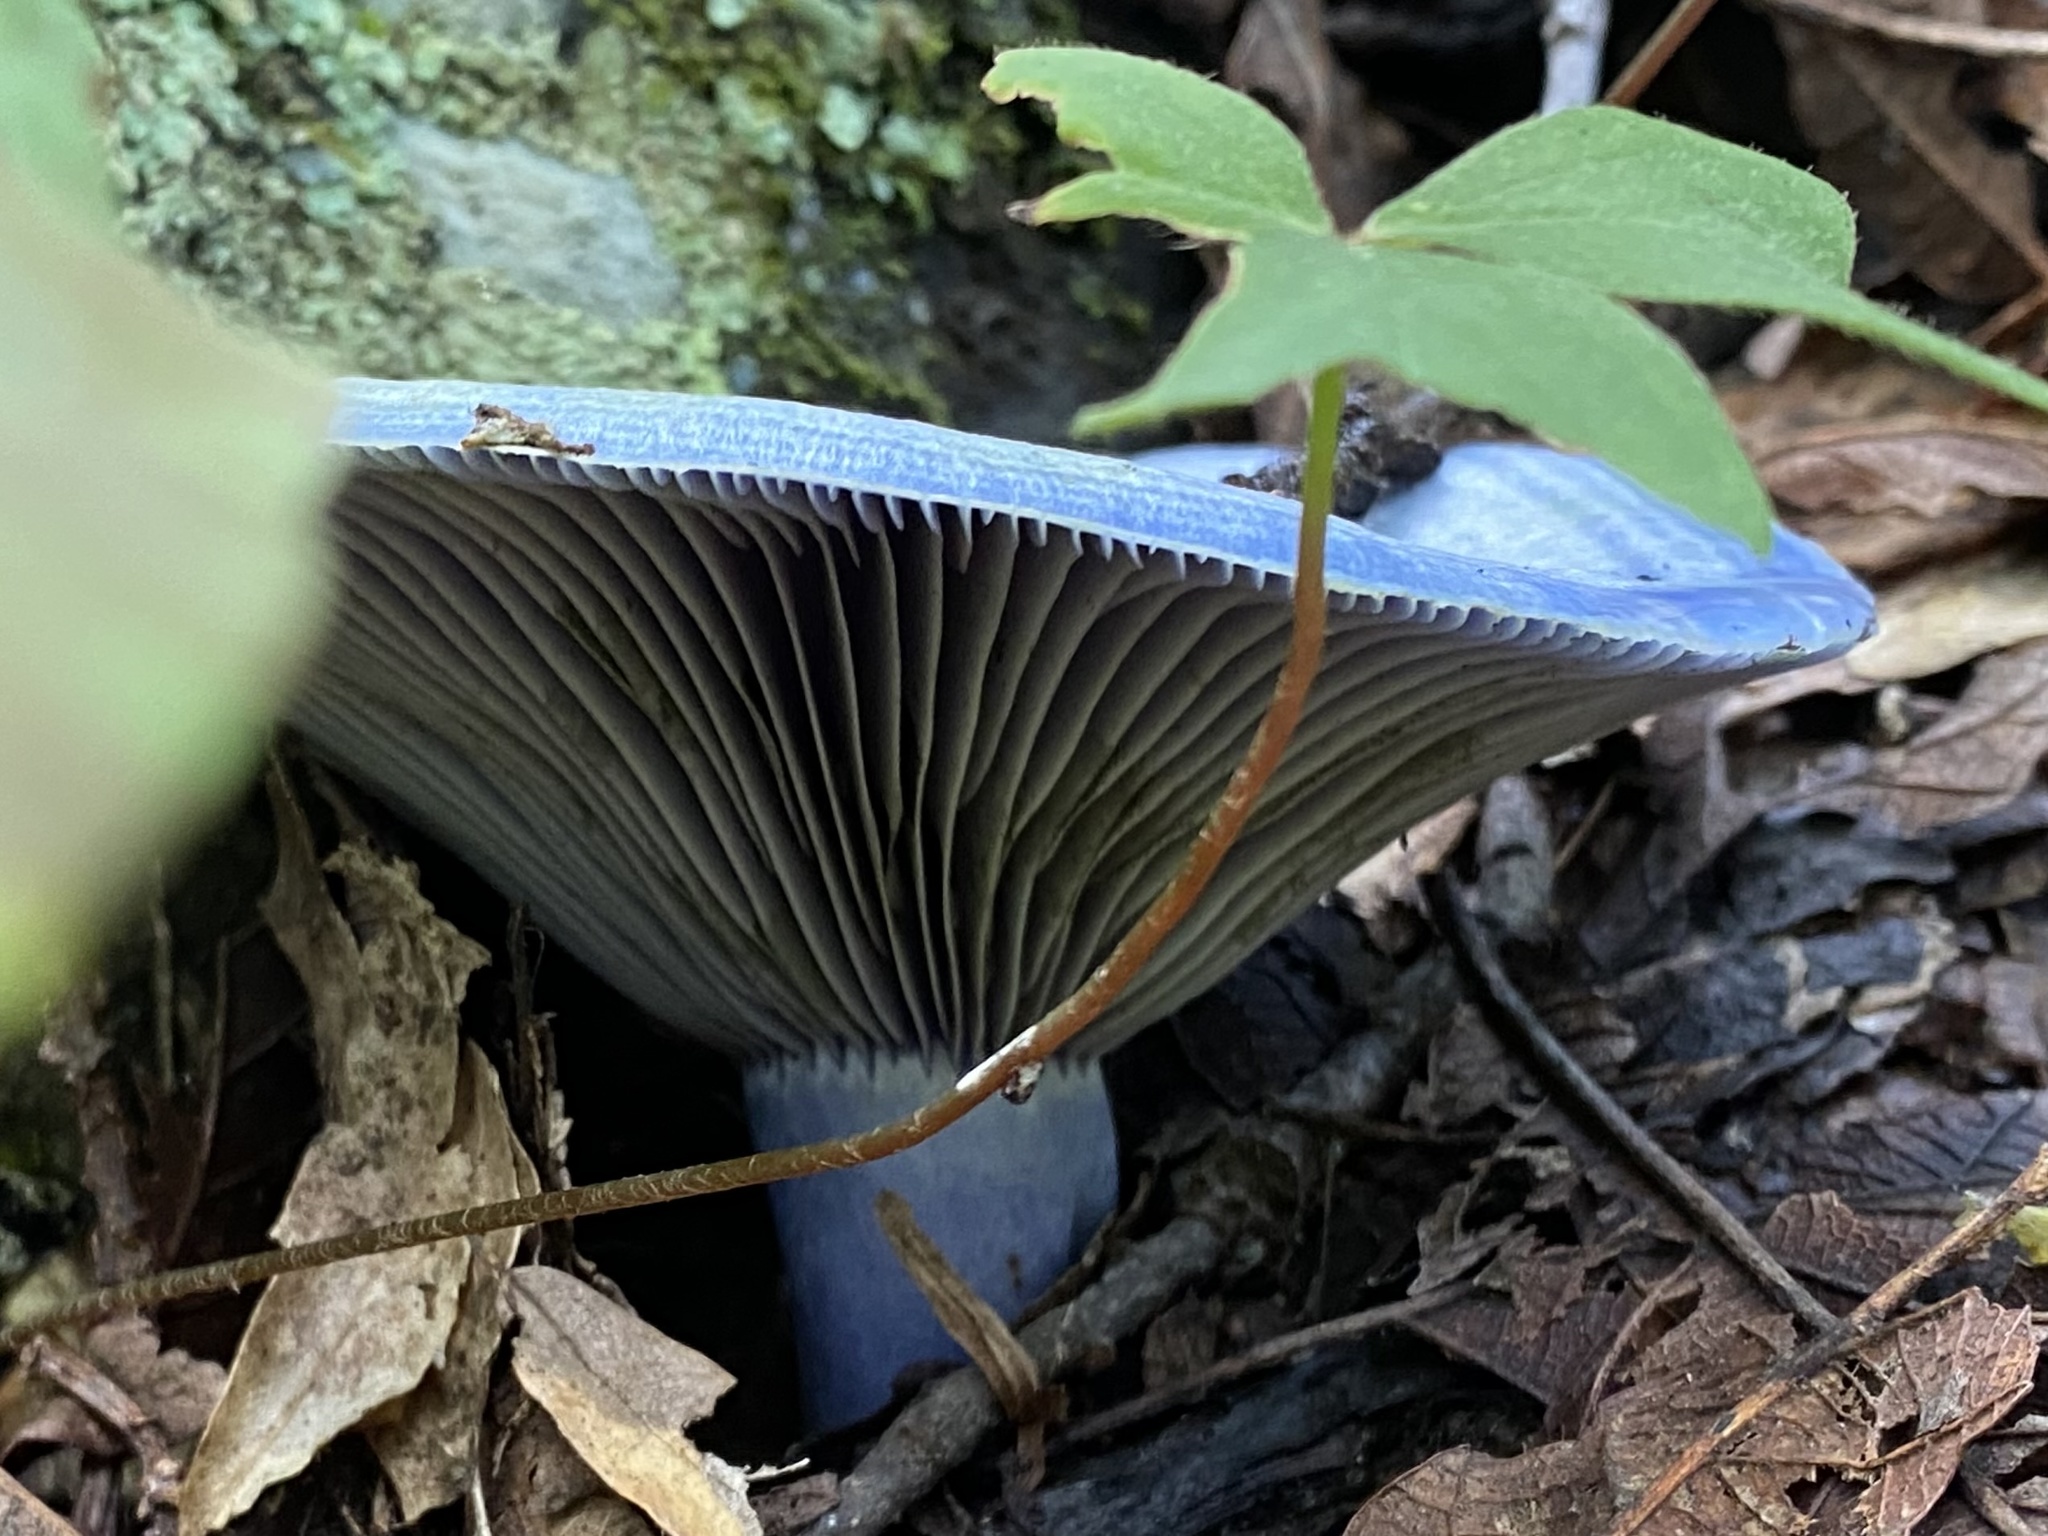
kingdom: Fungi
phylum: Basidiomycota
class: Agaricomycetes
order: Russulales
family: Russulaceae
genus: Lactarius
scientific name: Lactarius indigo
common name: Indigo milk cap
